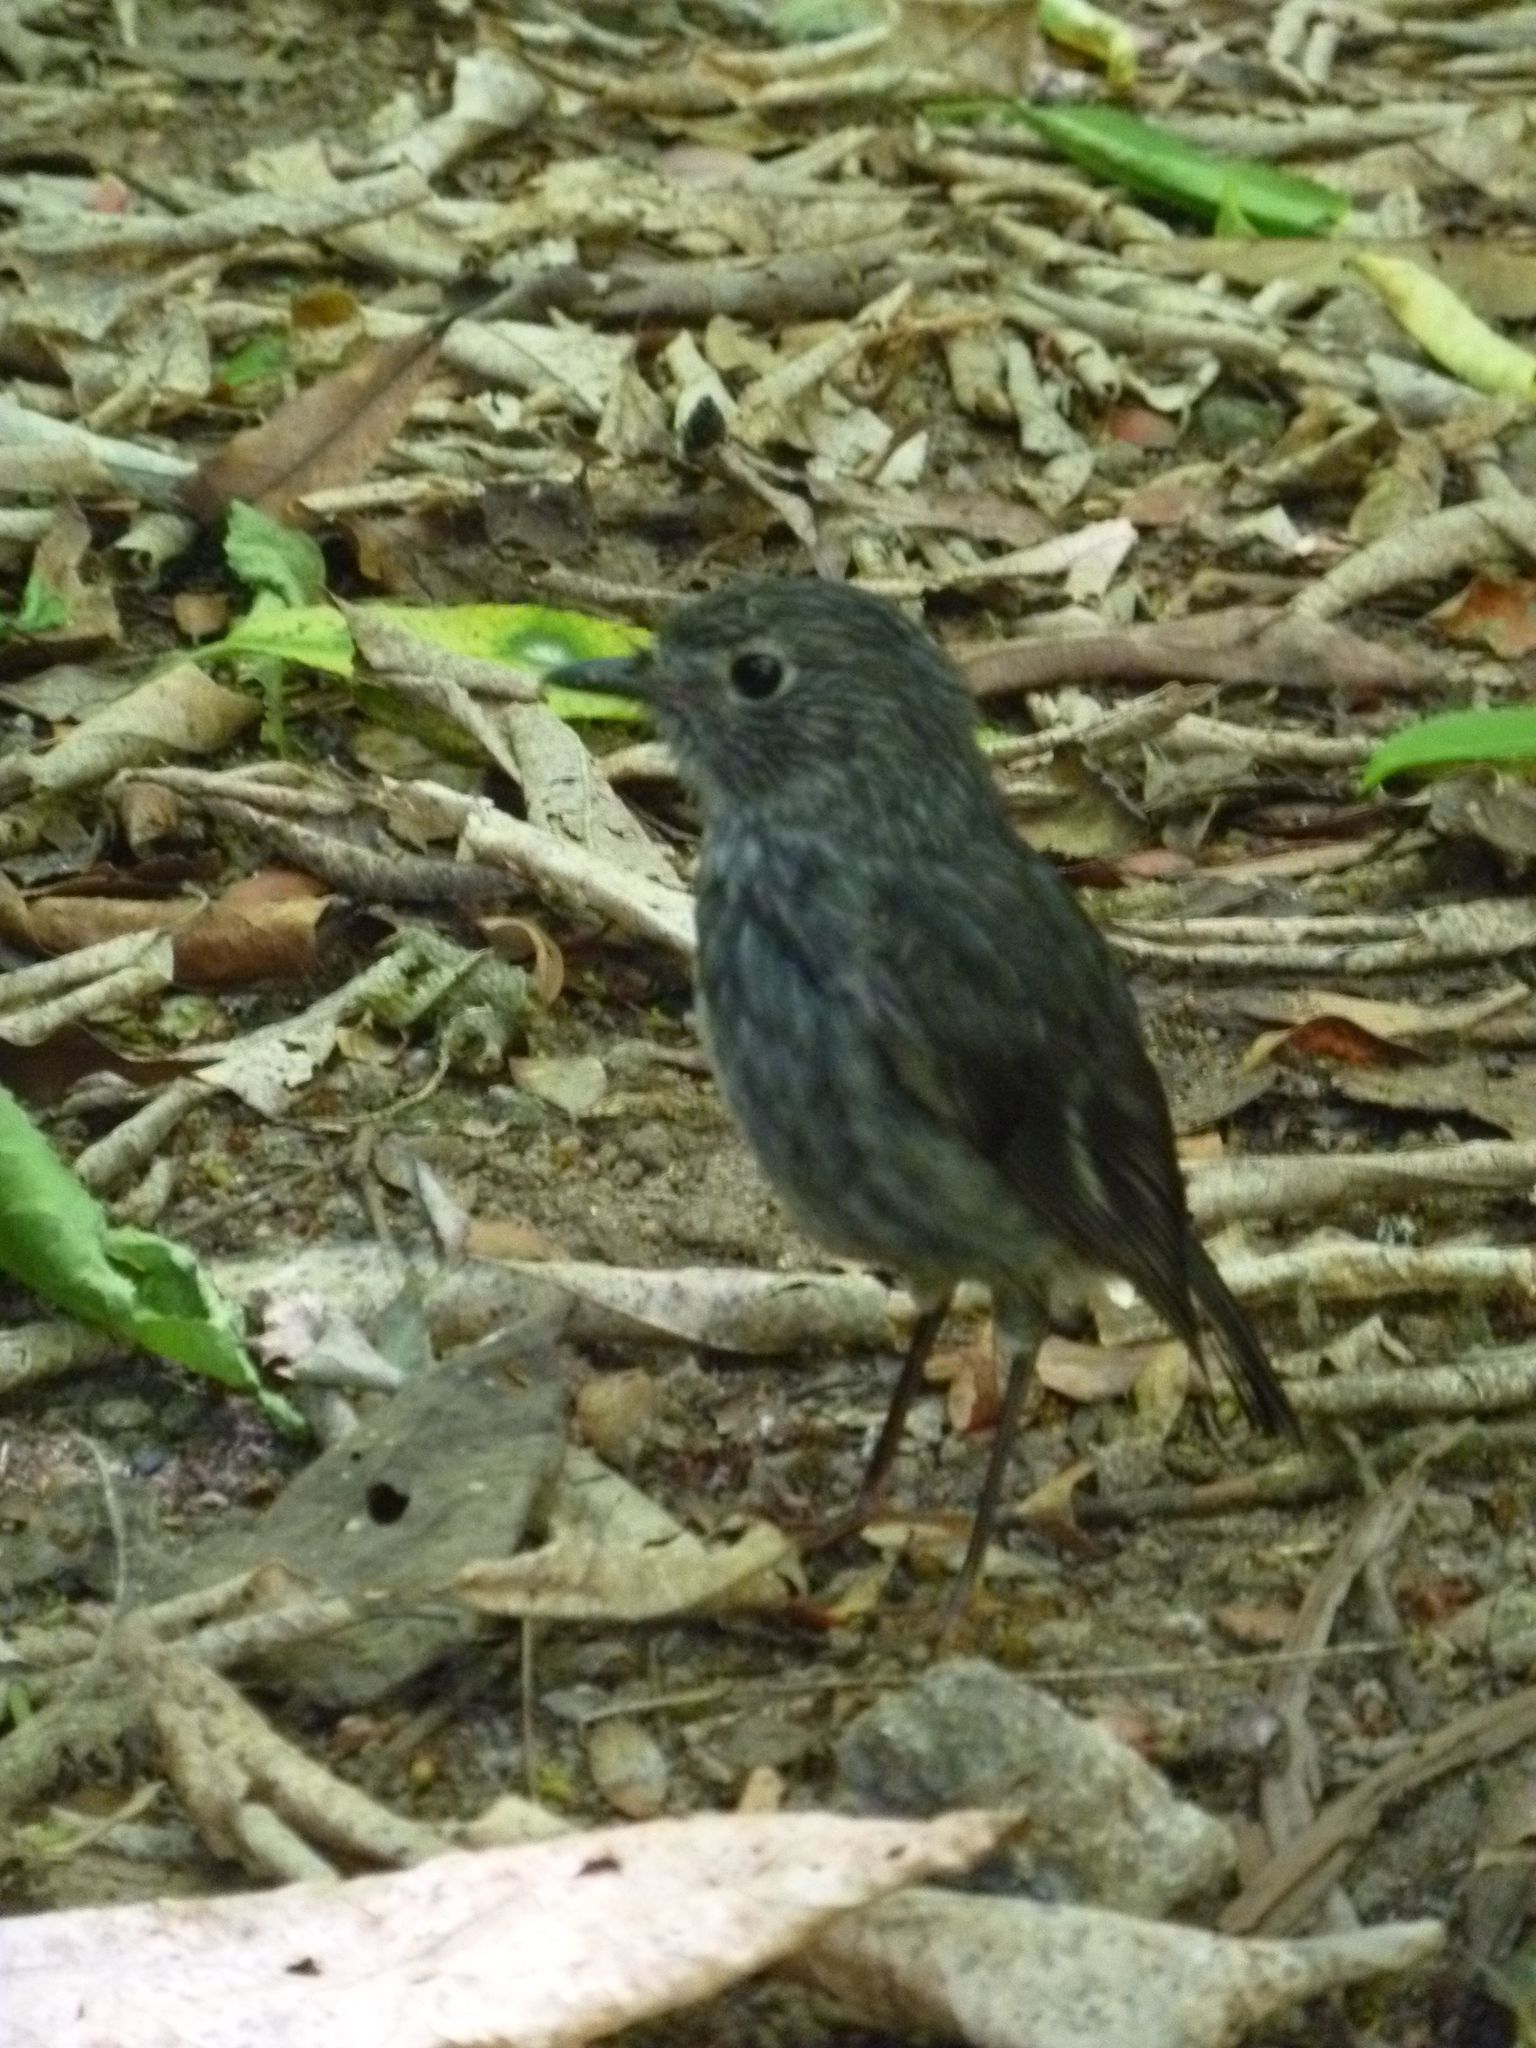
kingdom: Animalia
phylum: Chordata
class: Aves
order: Passeriformes
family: Petroicidae
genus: Petroica
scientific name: Petroica australis
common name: New zealand robin
